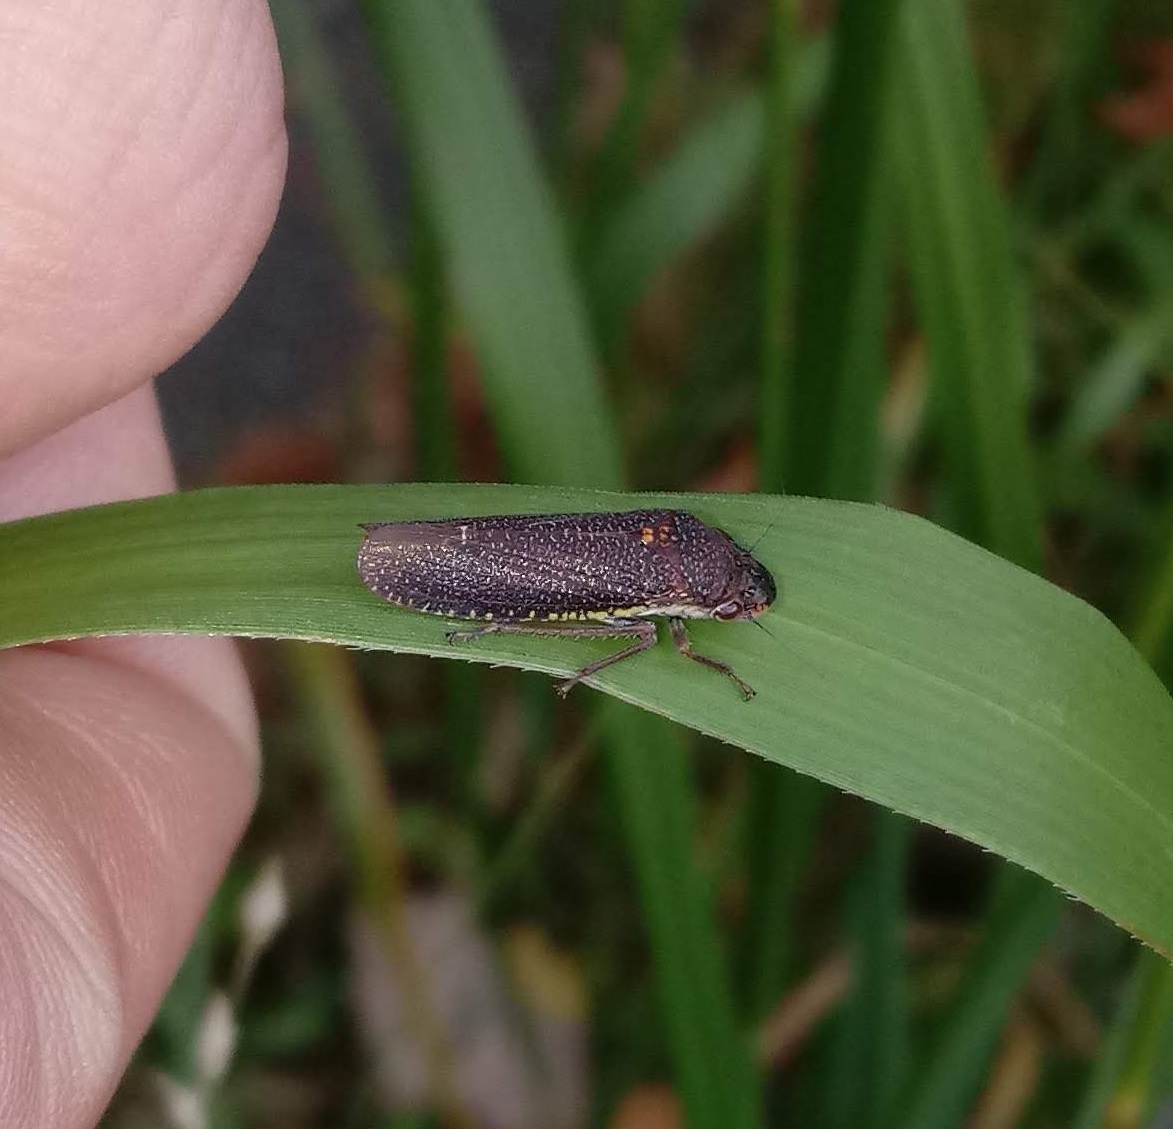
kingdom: Animalia
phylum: Arthropoda
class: Insecta
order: Hemiptera
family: Cicadellidae
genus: Paraulacizes
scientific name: Paraulacizes irrorata
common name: Speckled sharpshooter
